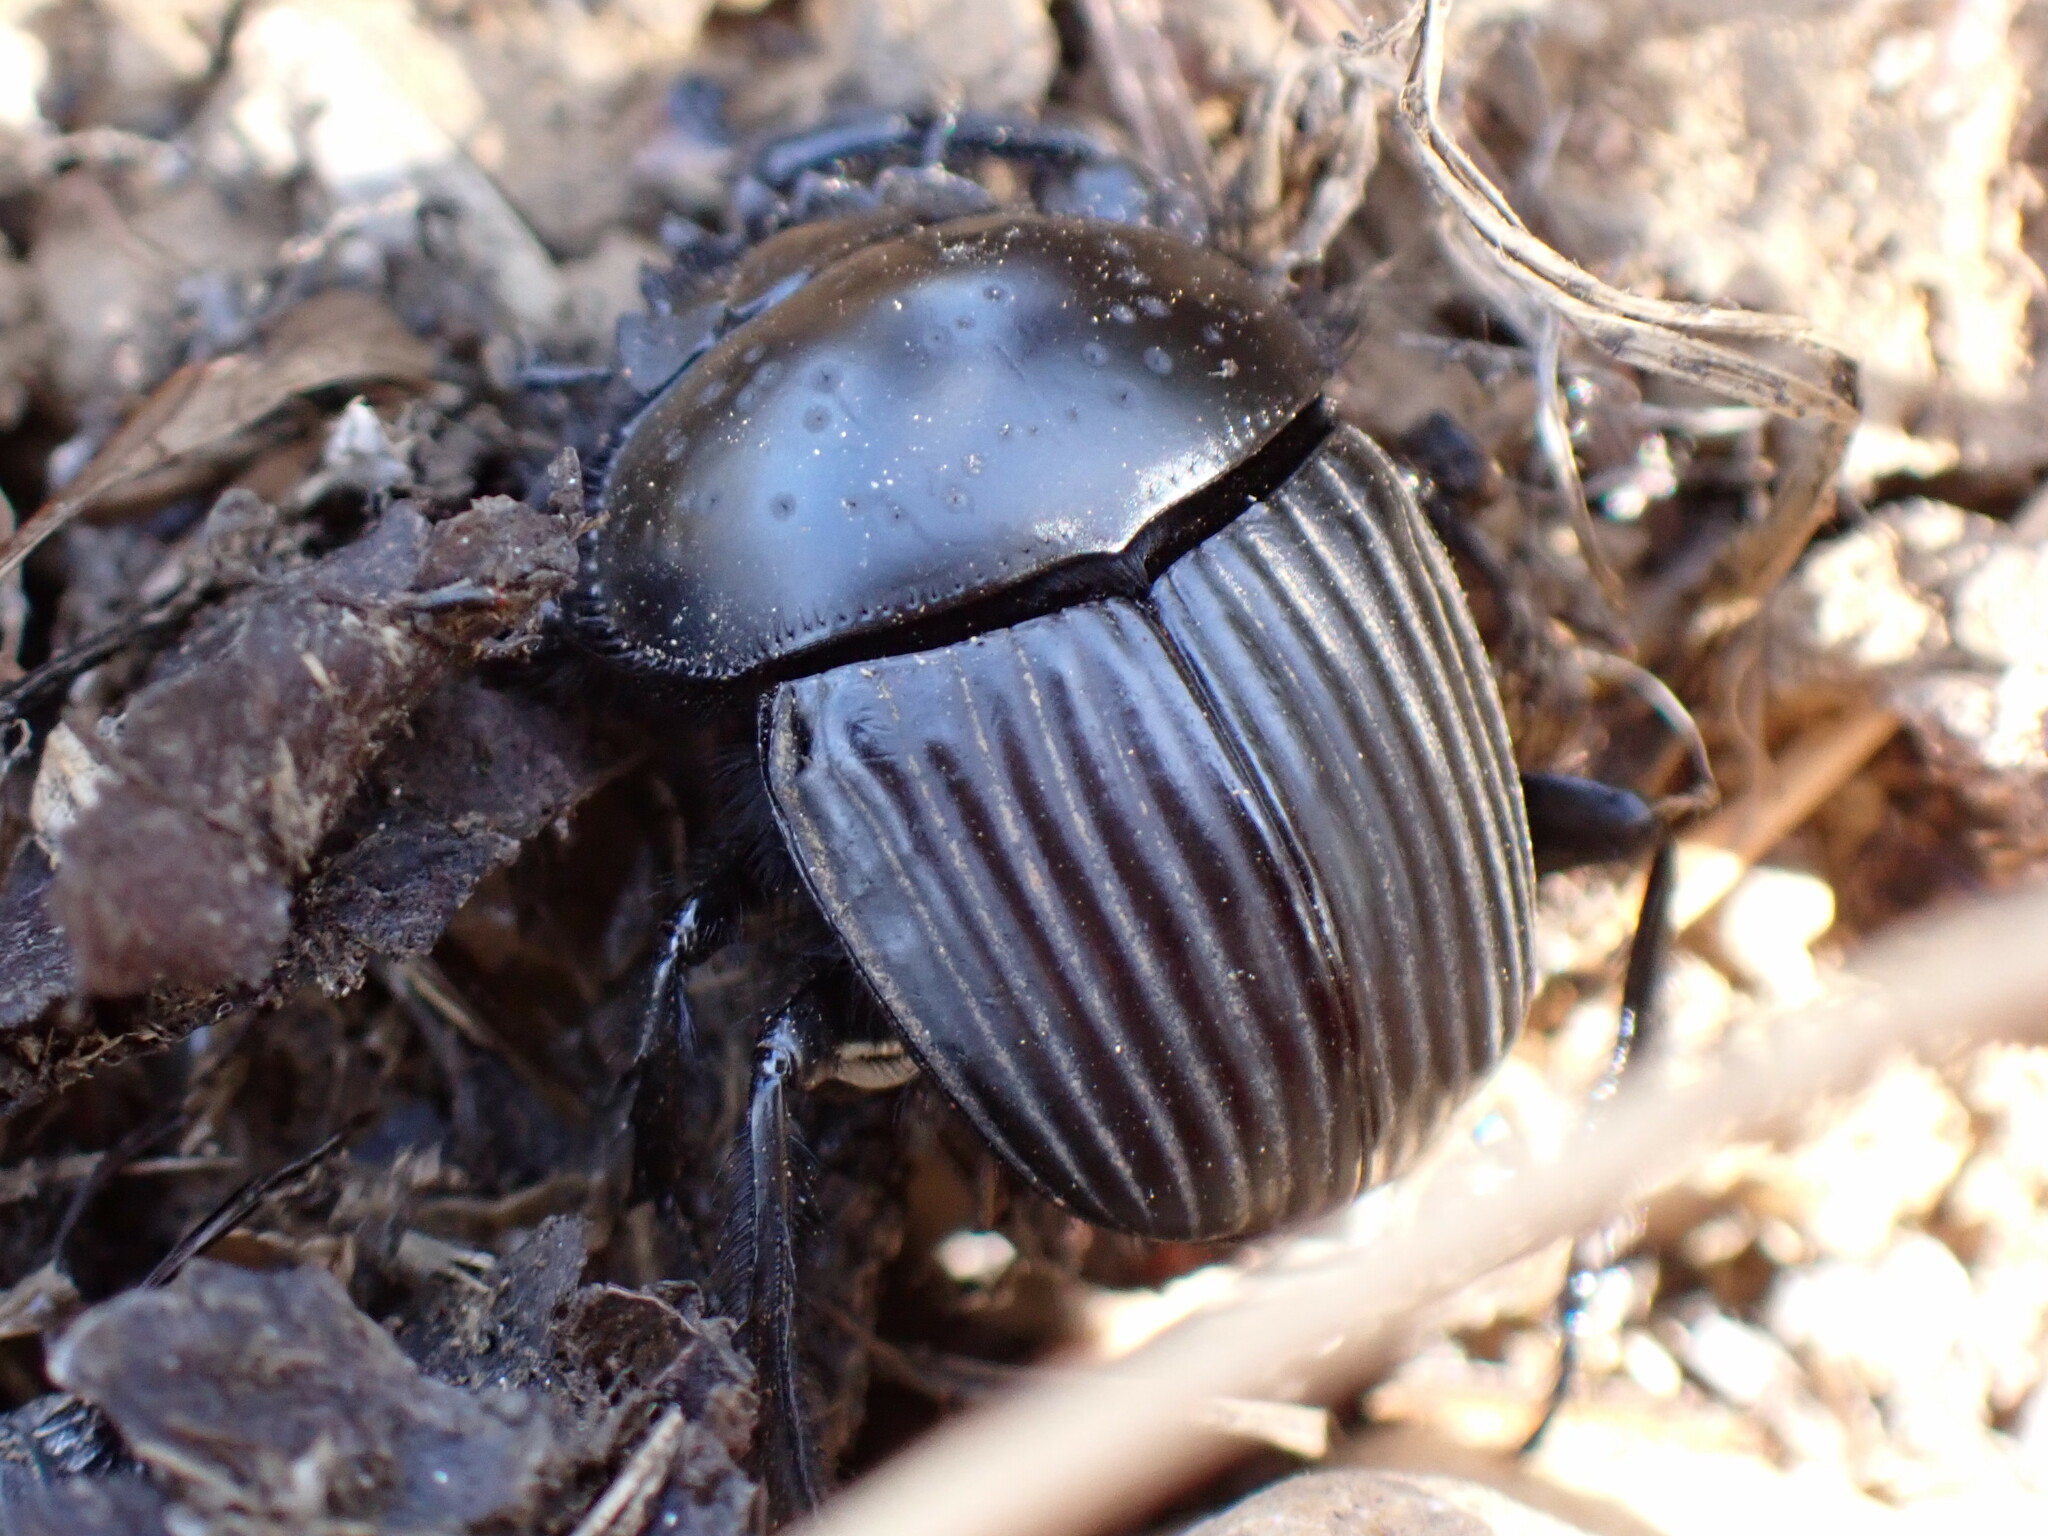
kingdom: Animalia
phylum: Arthropoda
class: Insecta
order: Coleoptera
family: Scarabaeidae
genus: Ateuchetus
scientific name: Ateuchetus laticollis
